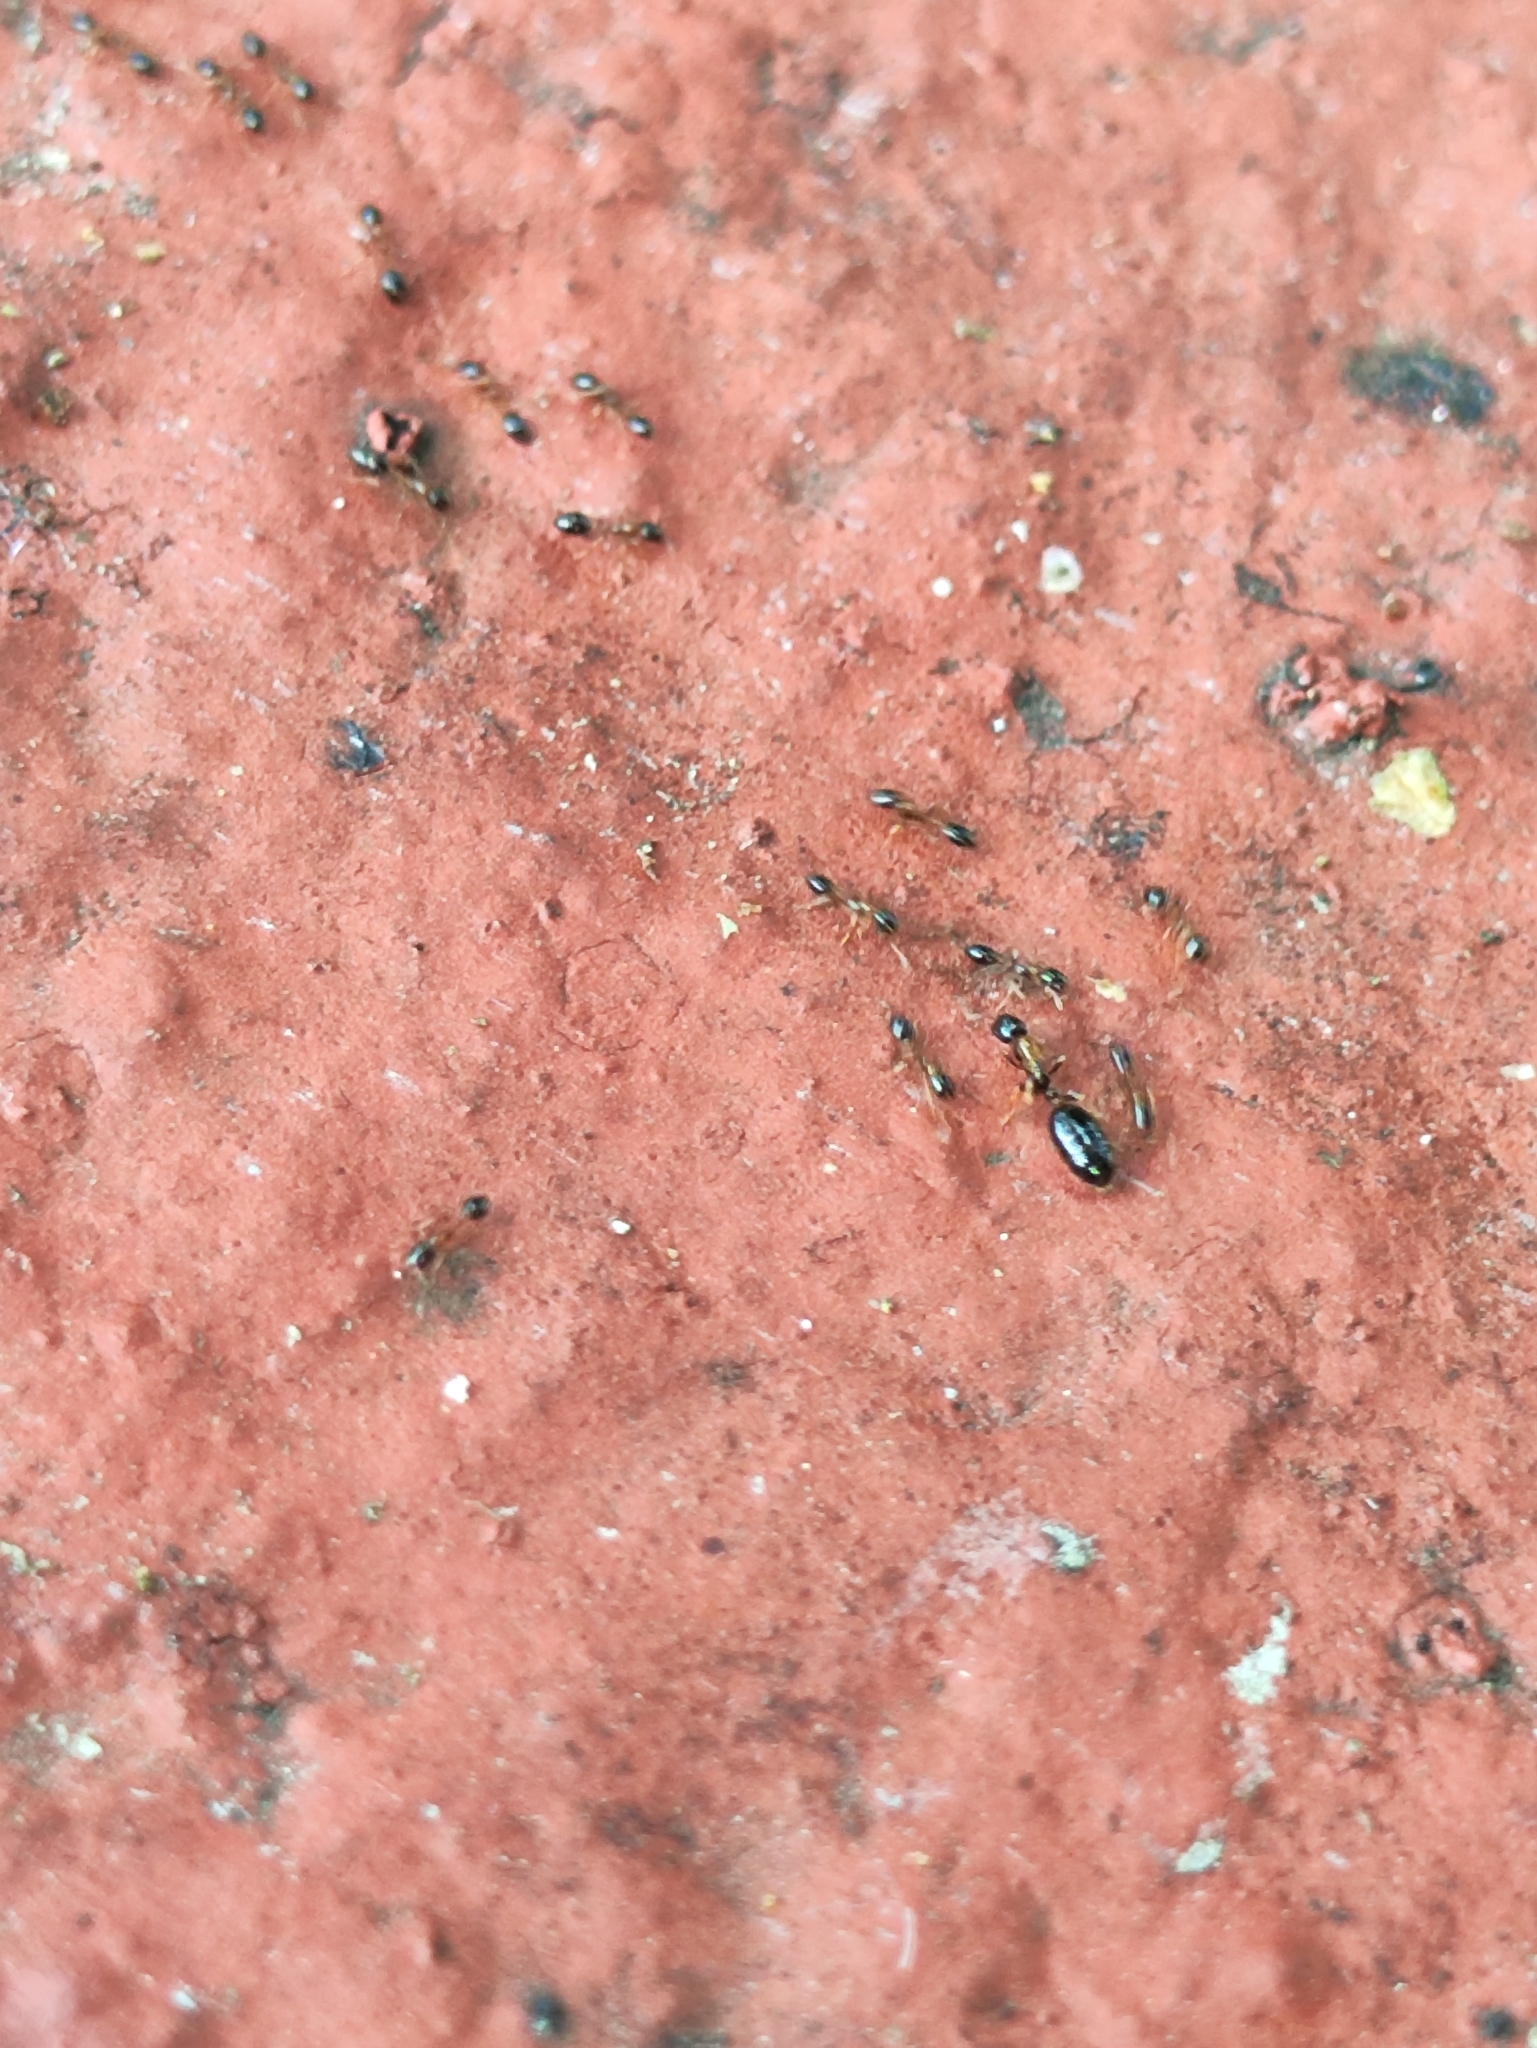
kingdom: Animalia
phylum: Arthropoda
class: Insecta
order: Hymenoptera
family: Formicidae
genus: Monomorium
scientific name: Monomorium floricola
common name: Bicolored trailing ant
